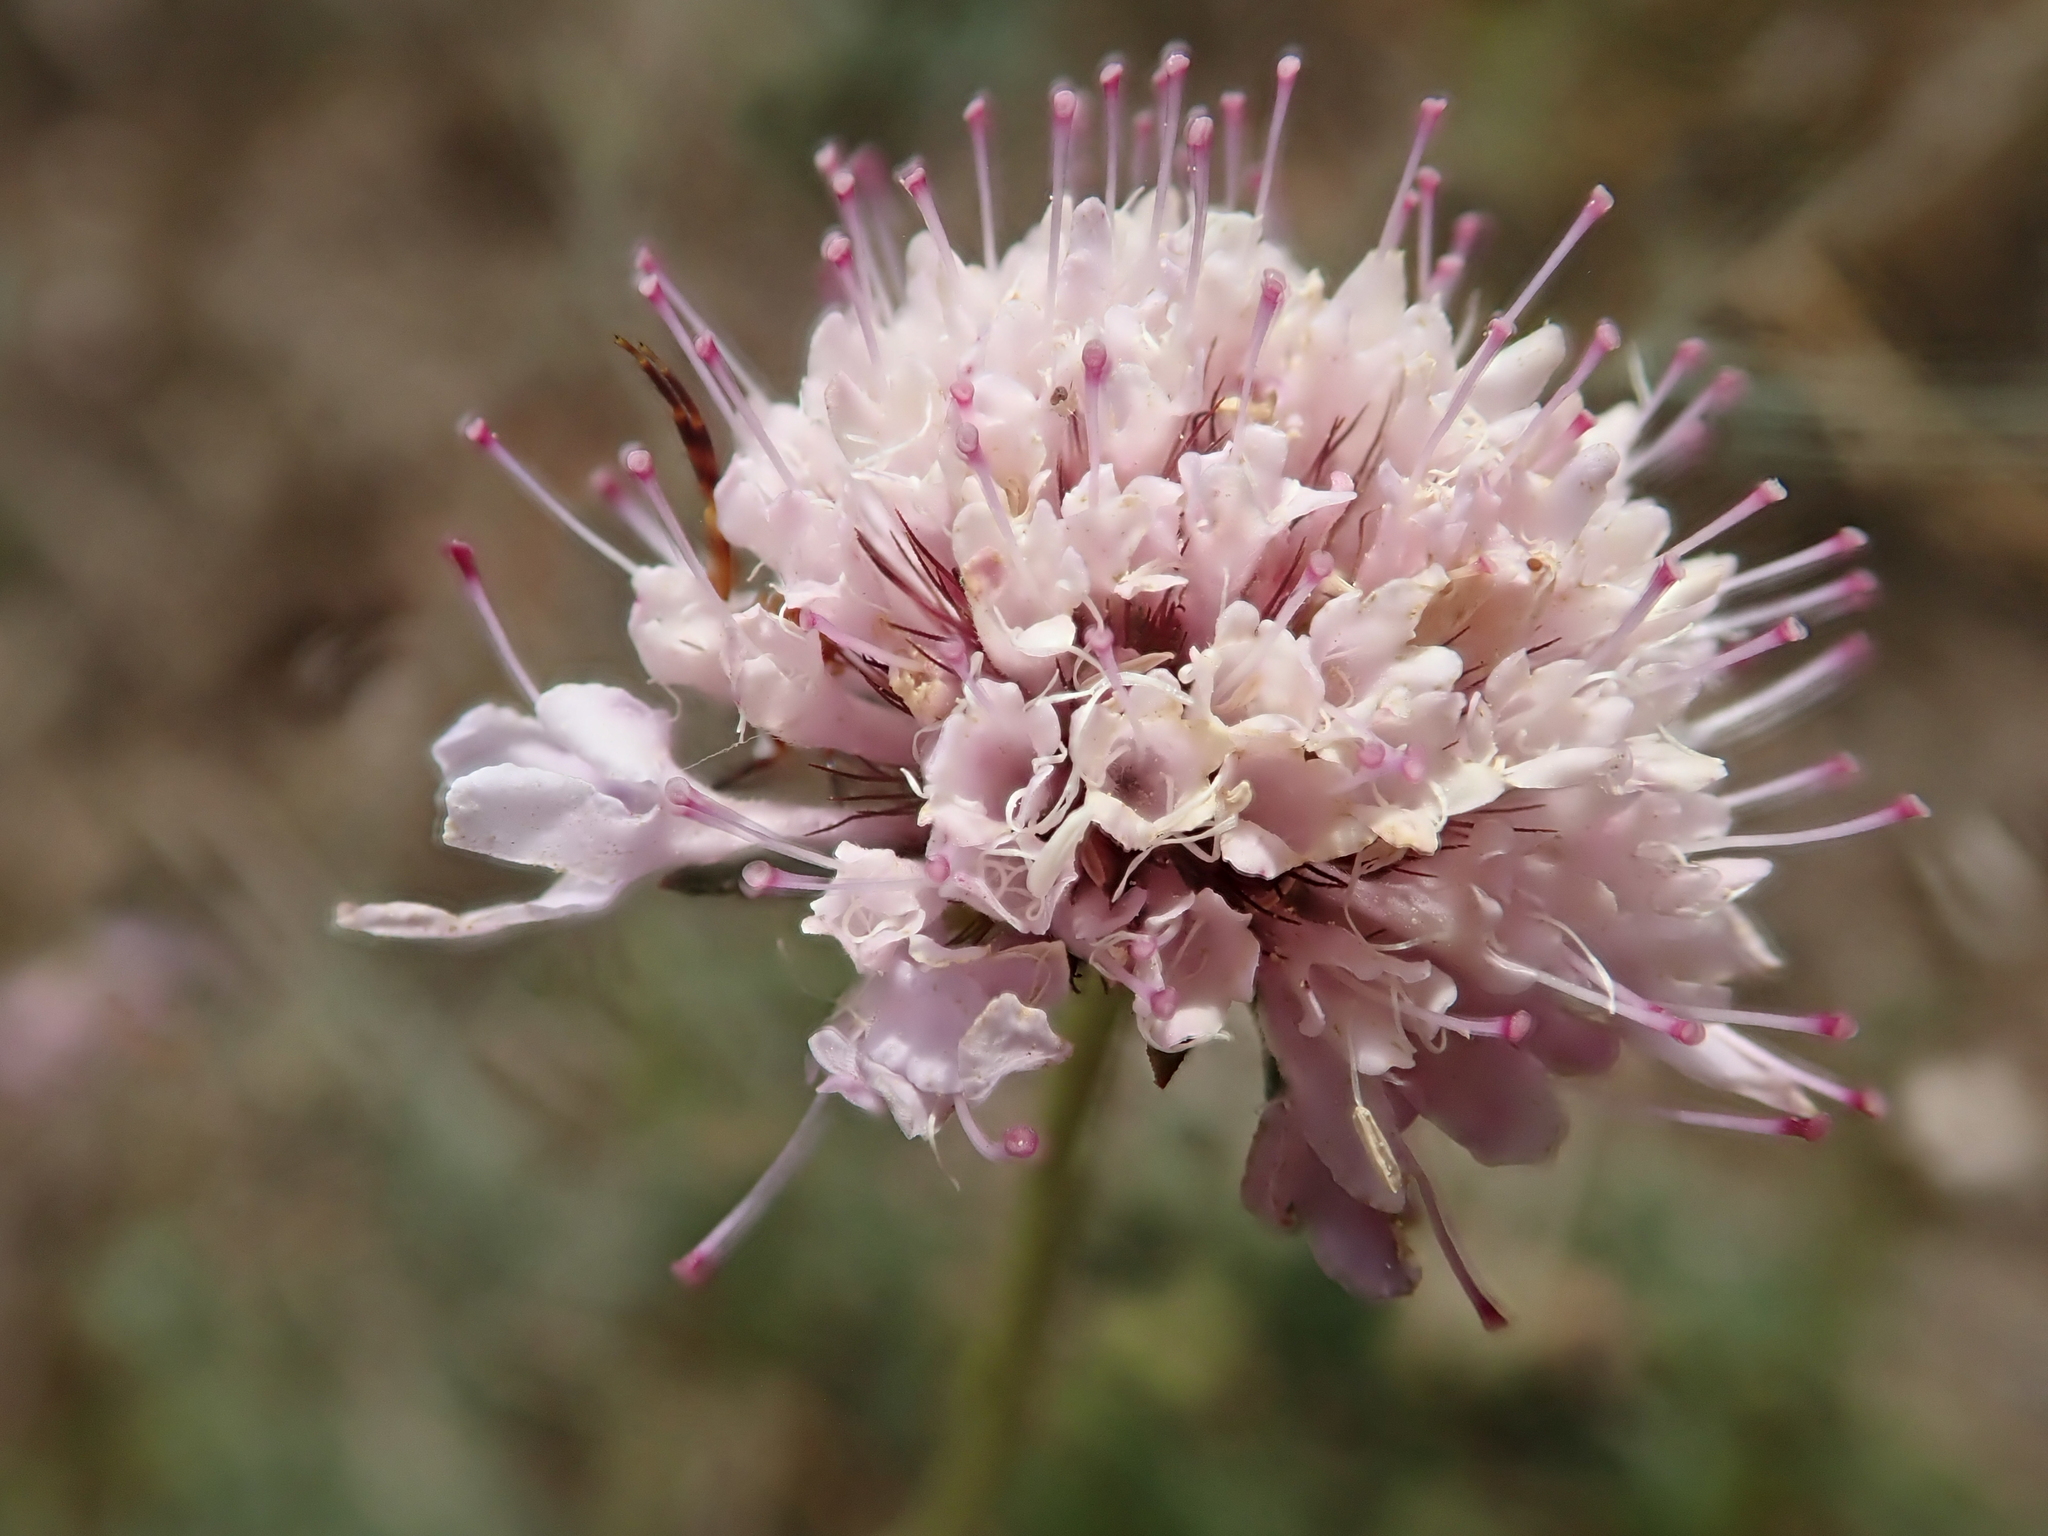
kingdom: Plantae
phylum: Tracheophyta
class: Magnoliopsida
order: Dipsacales
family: Caprifoliaceae
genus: Sixalix
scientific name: Sixalix atropurpurea
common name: Sweet scabious
